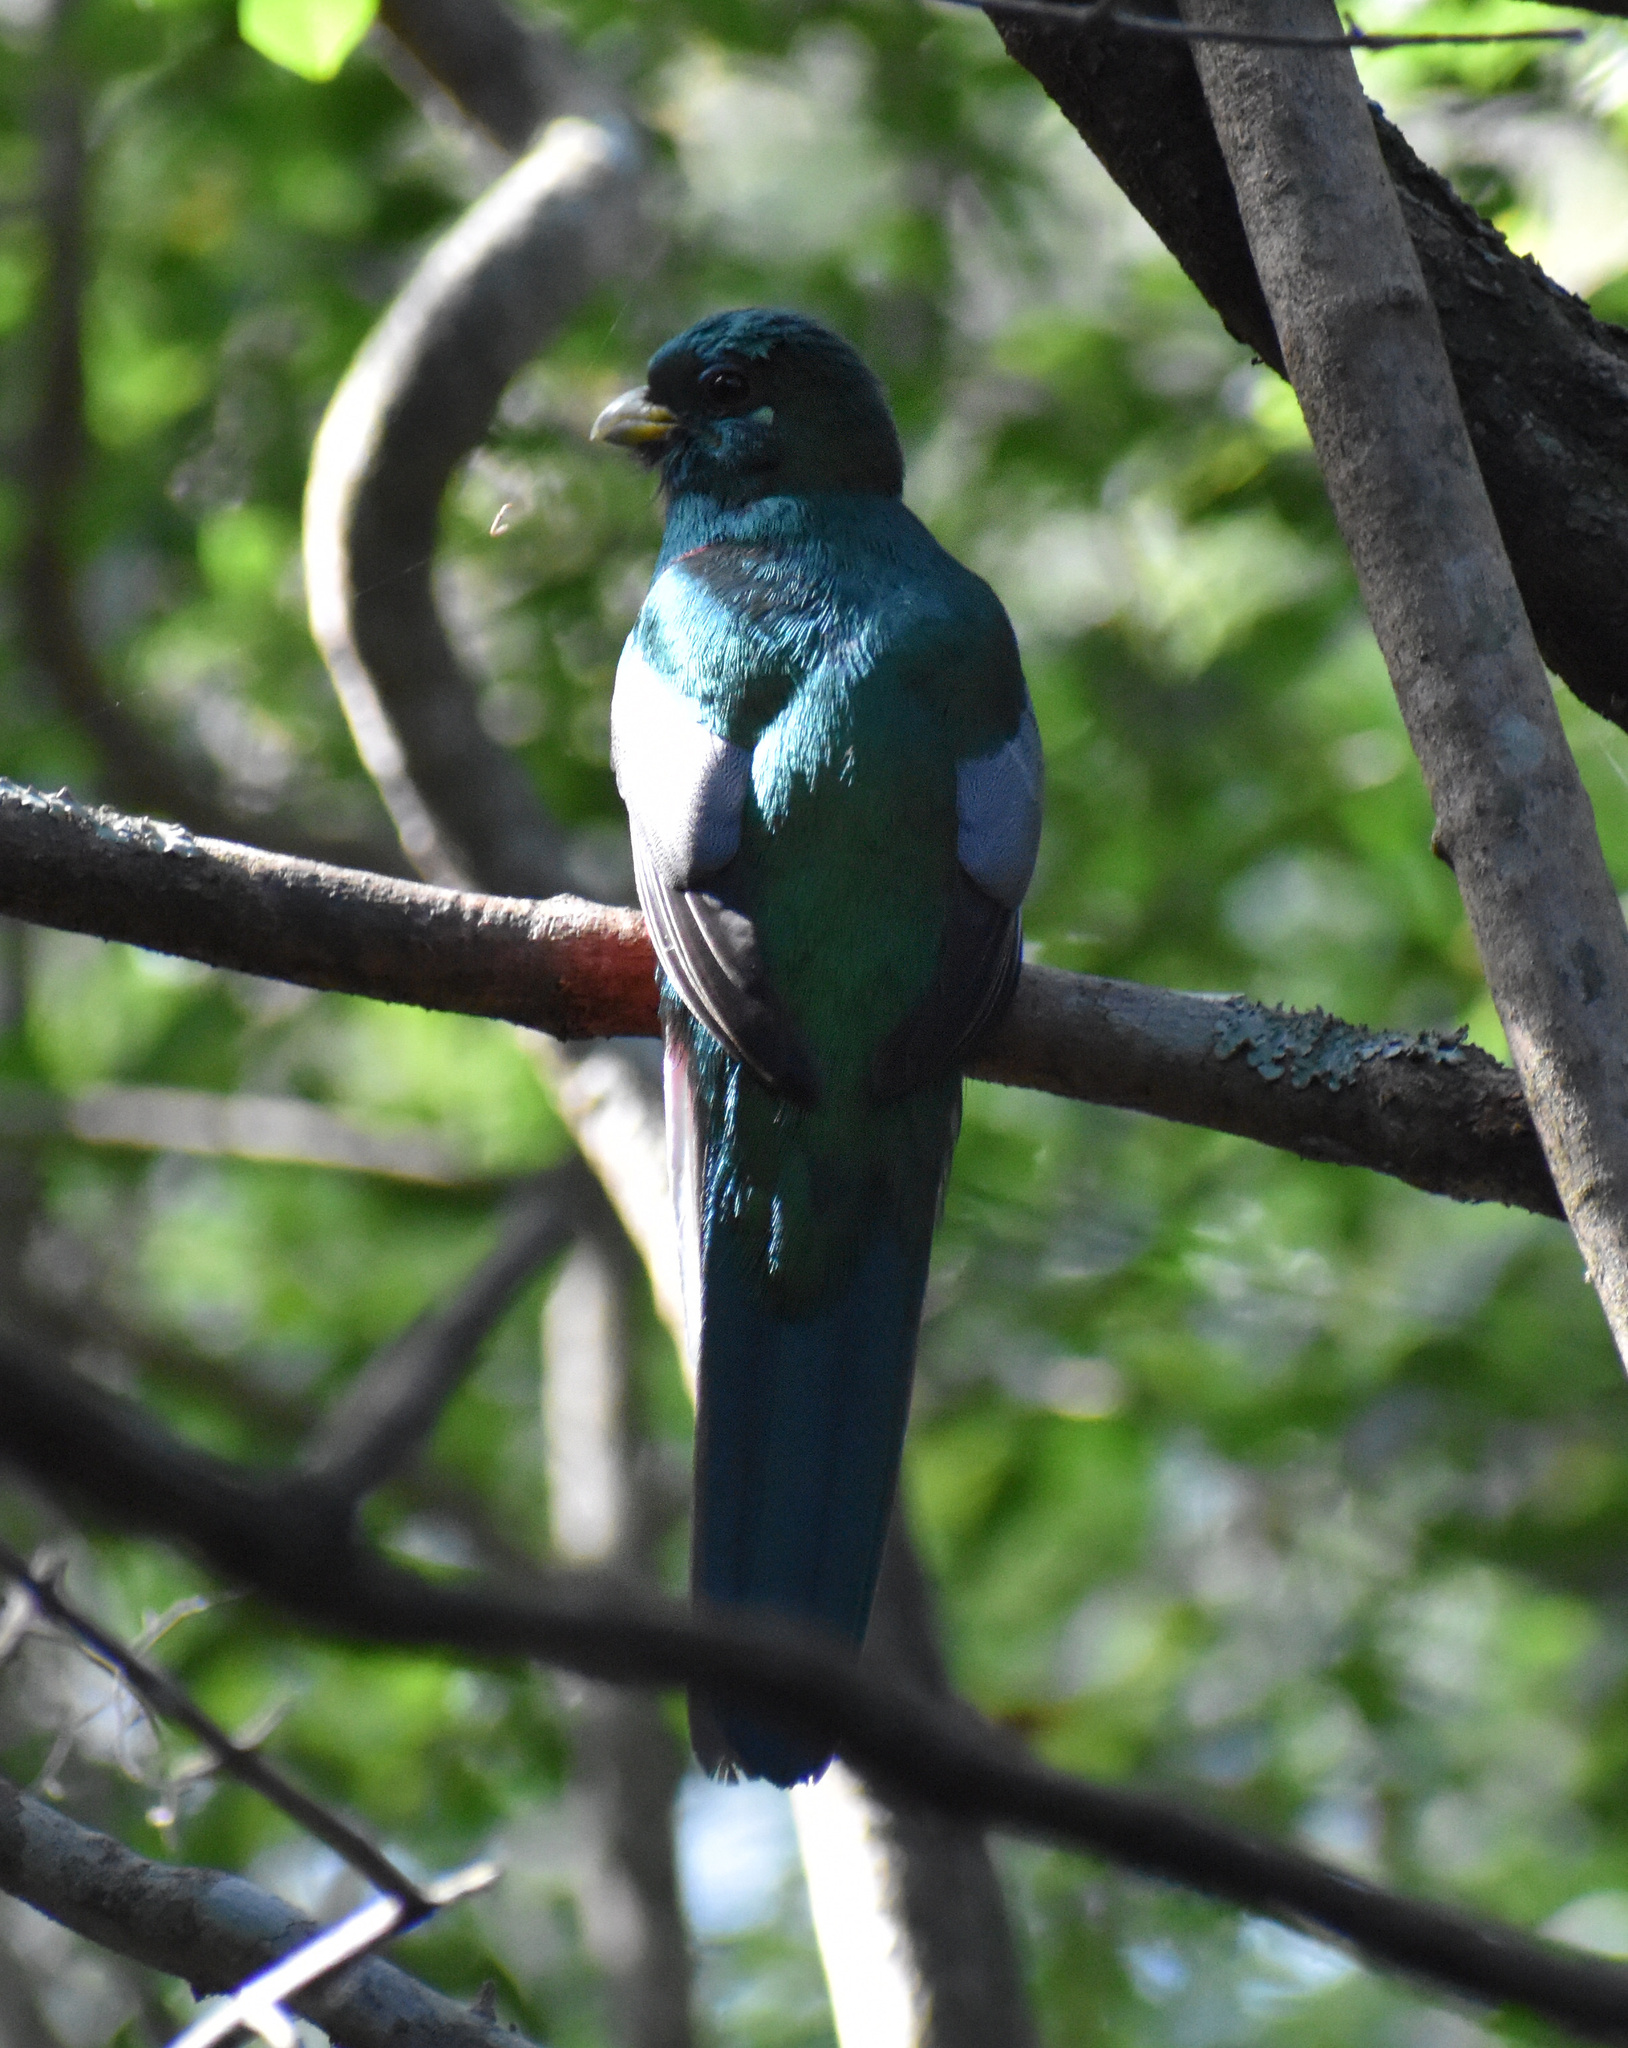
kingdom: Animalia
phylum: Chordata
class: Aves
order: Trogoniformes
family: Trogonidae
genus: Apaloderma
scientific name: Apaloderma narina
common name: Narina trogon
